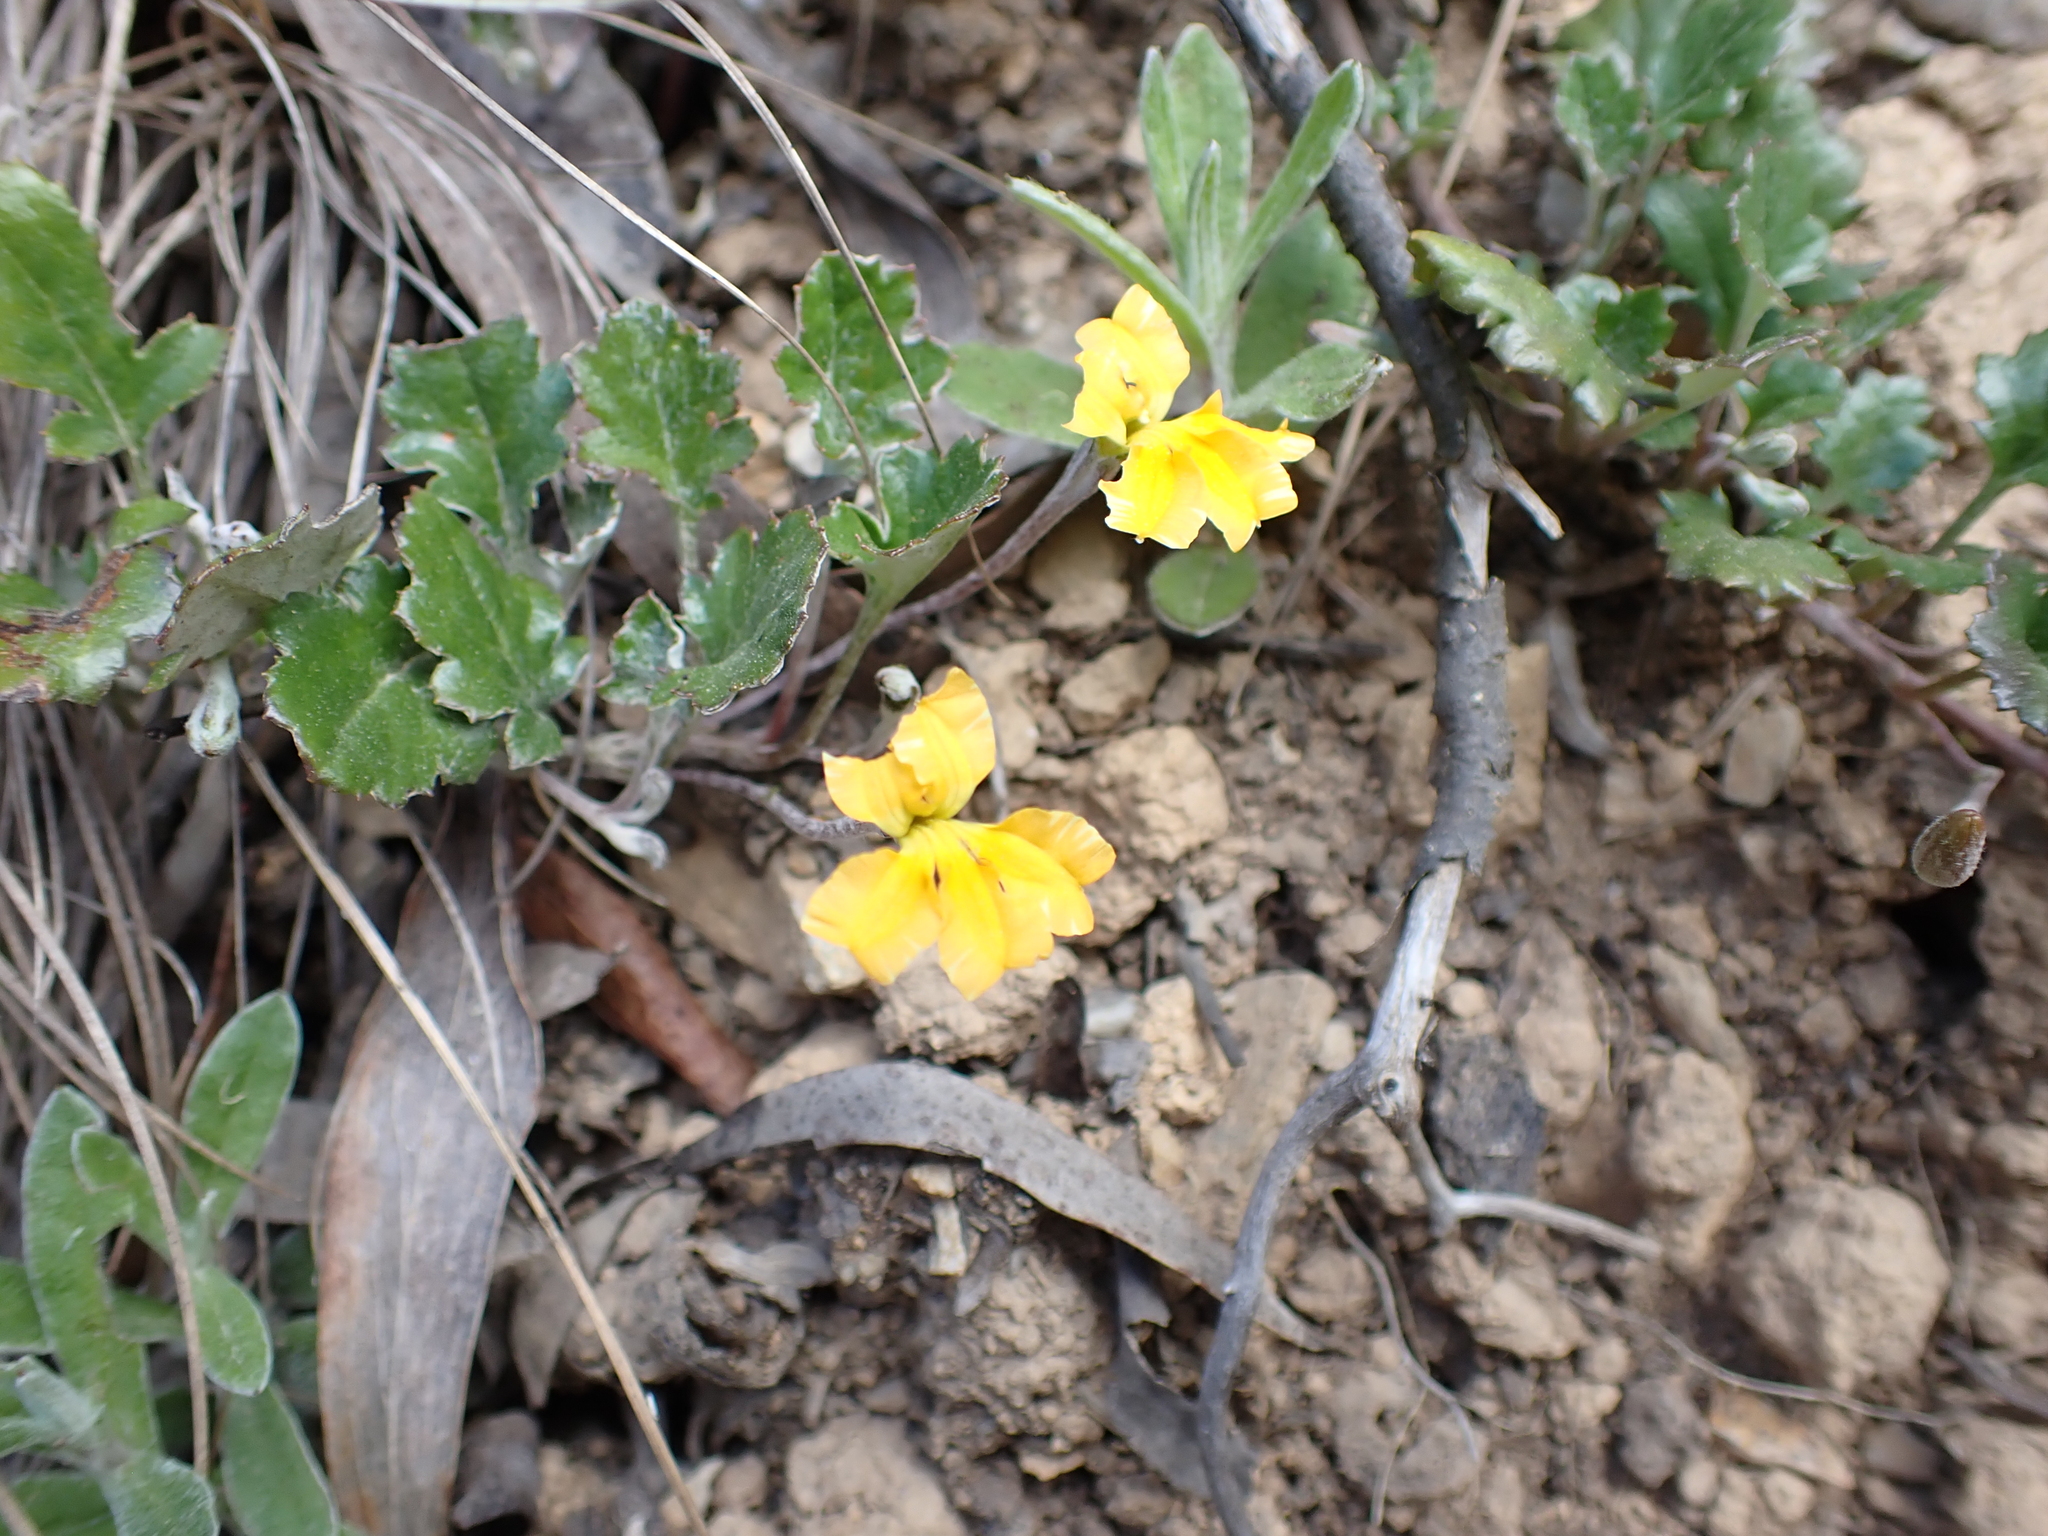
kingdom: Plantae
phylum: Tracheophyta
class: Magnoliopsida
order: Asterales
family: Goodeniaceae
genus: Goodenia
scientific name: Goodenia hederacea
